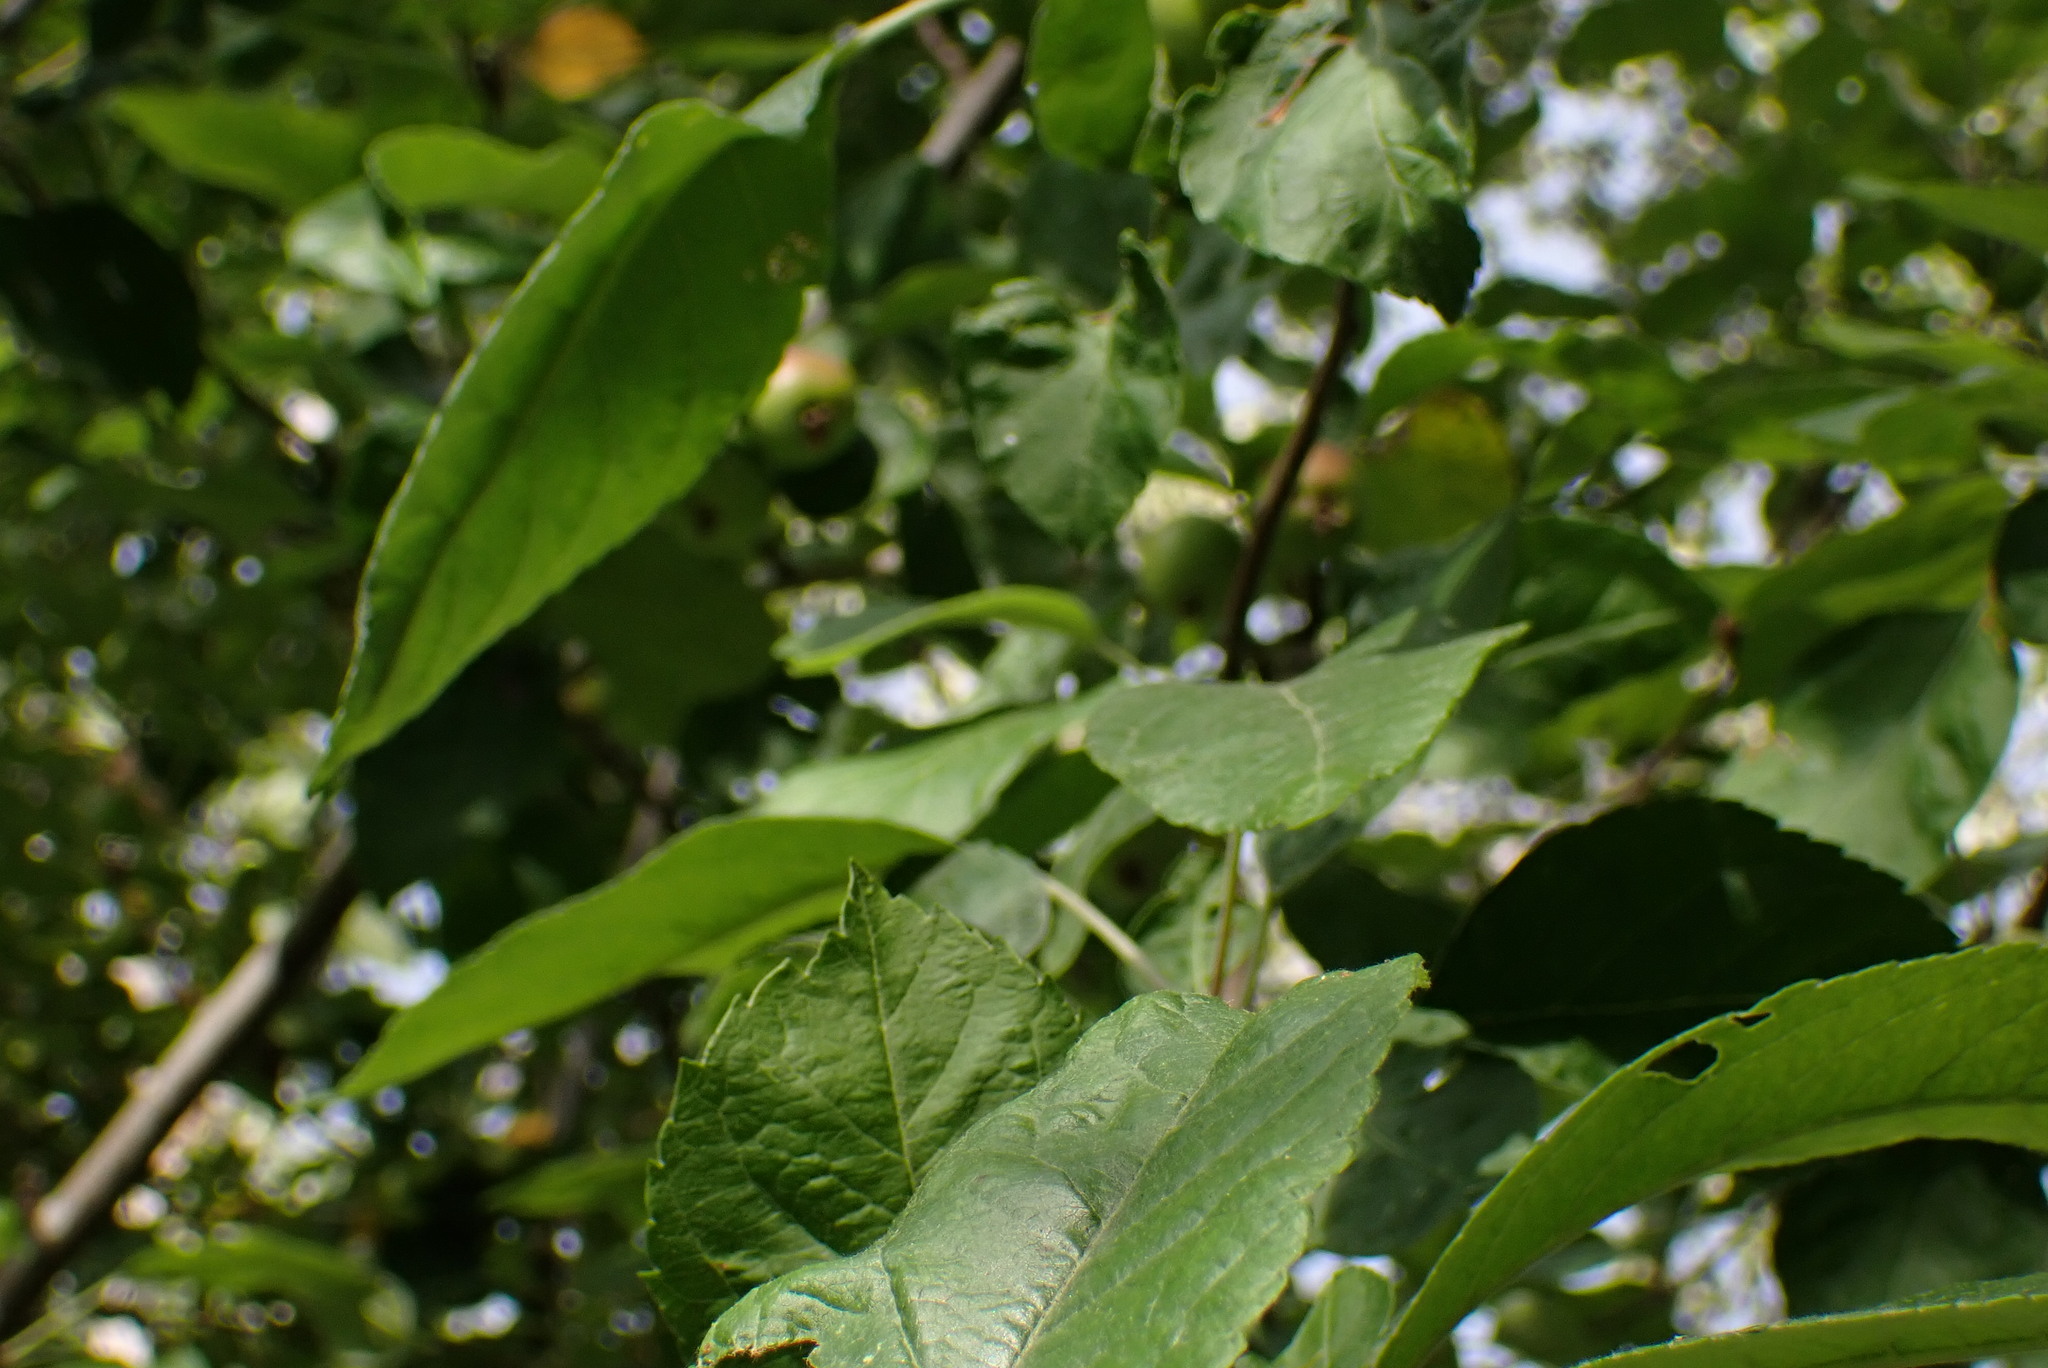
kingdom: Plantae
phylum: Tracheophyta
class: Magnoliopsida
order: Rosales
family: Rosaceae
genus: Malus
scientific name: Malus domestica
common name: Apple
